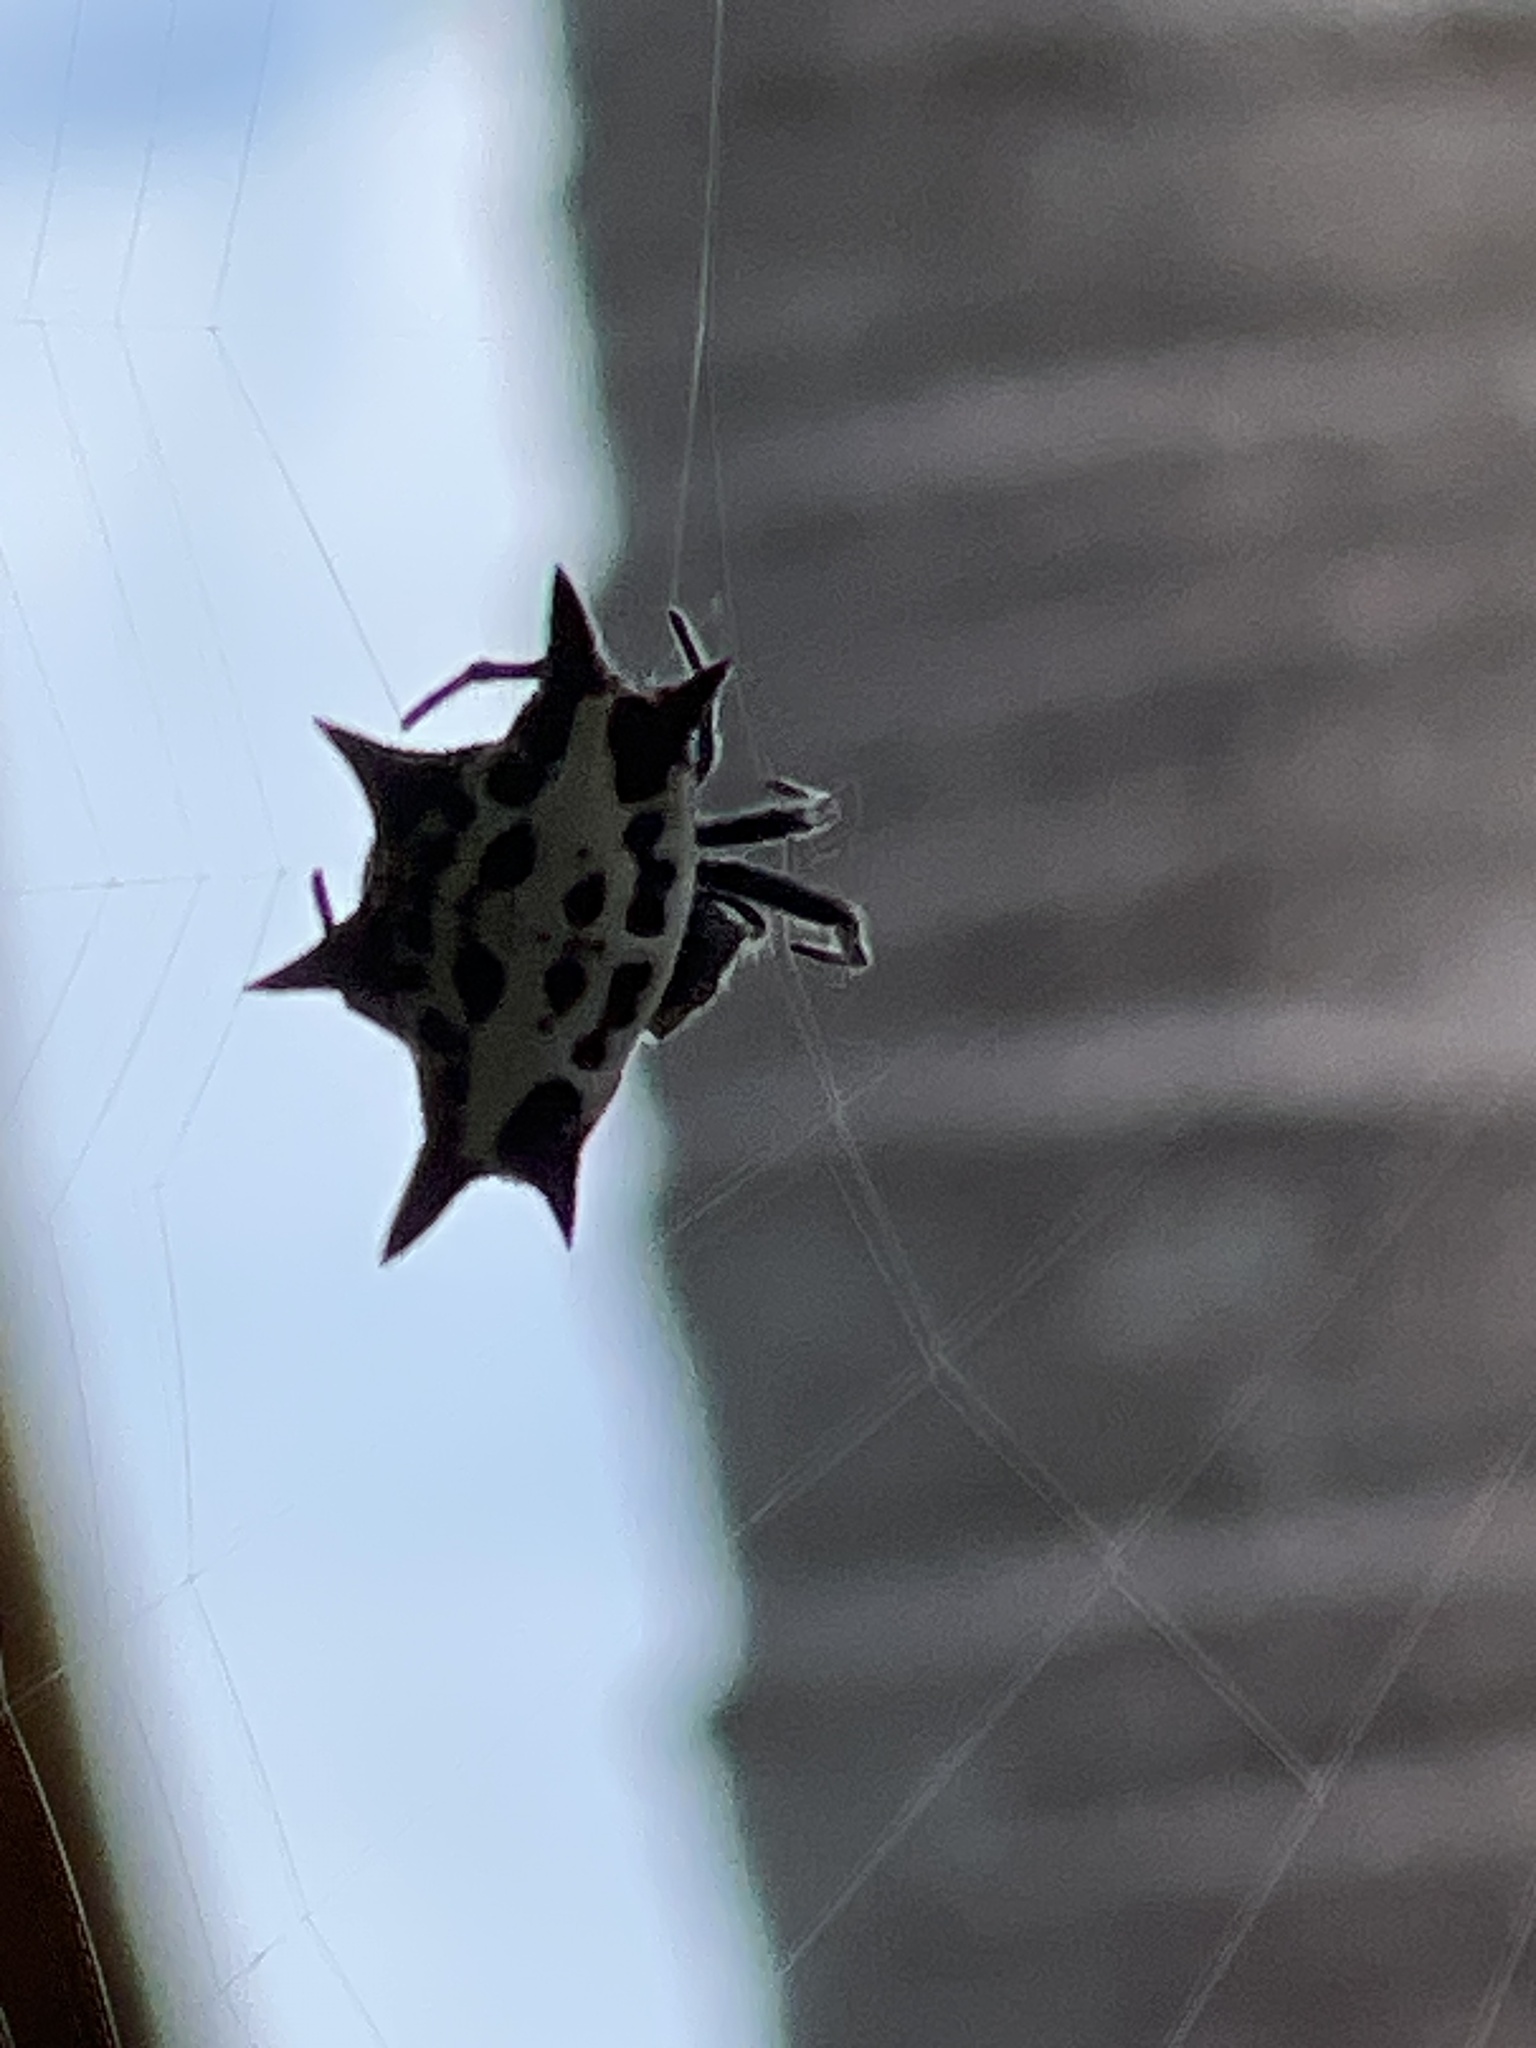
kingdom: Animalia
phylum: Arthropoda
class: Arachnida
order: Araneae
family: Araneidae
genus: Gasteracantha
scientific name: Gasteracantha cancriformis
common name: Orb weavers
